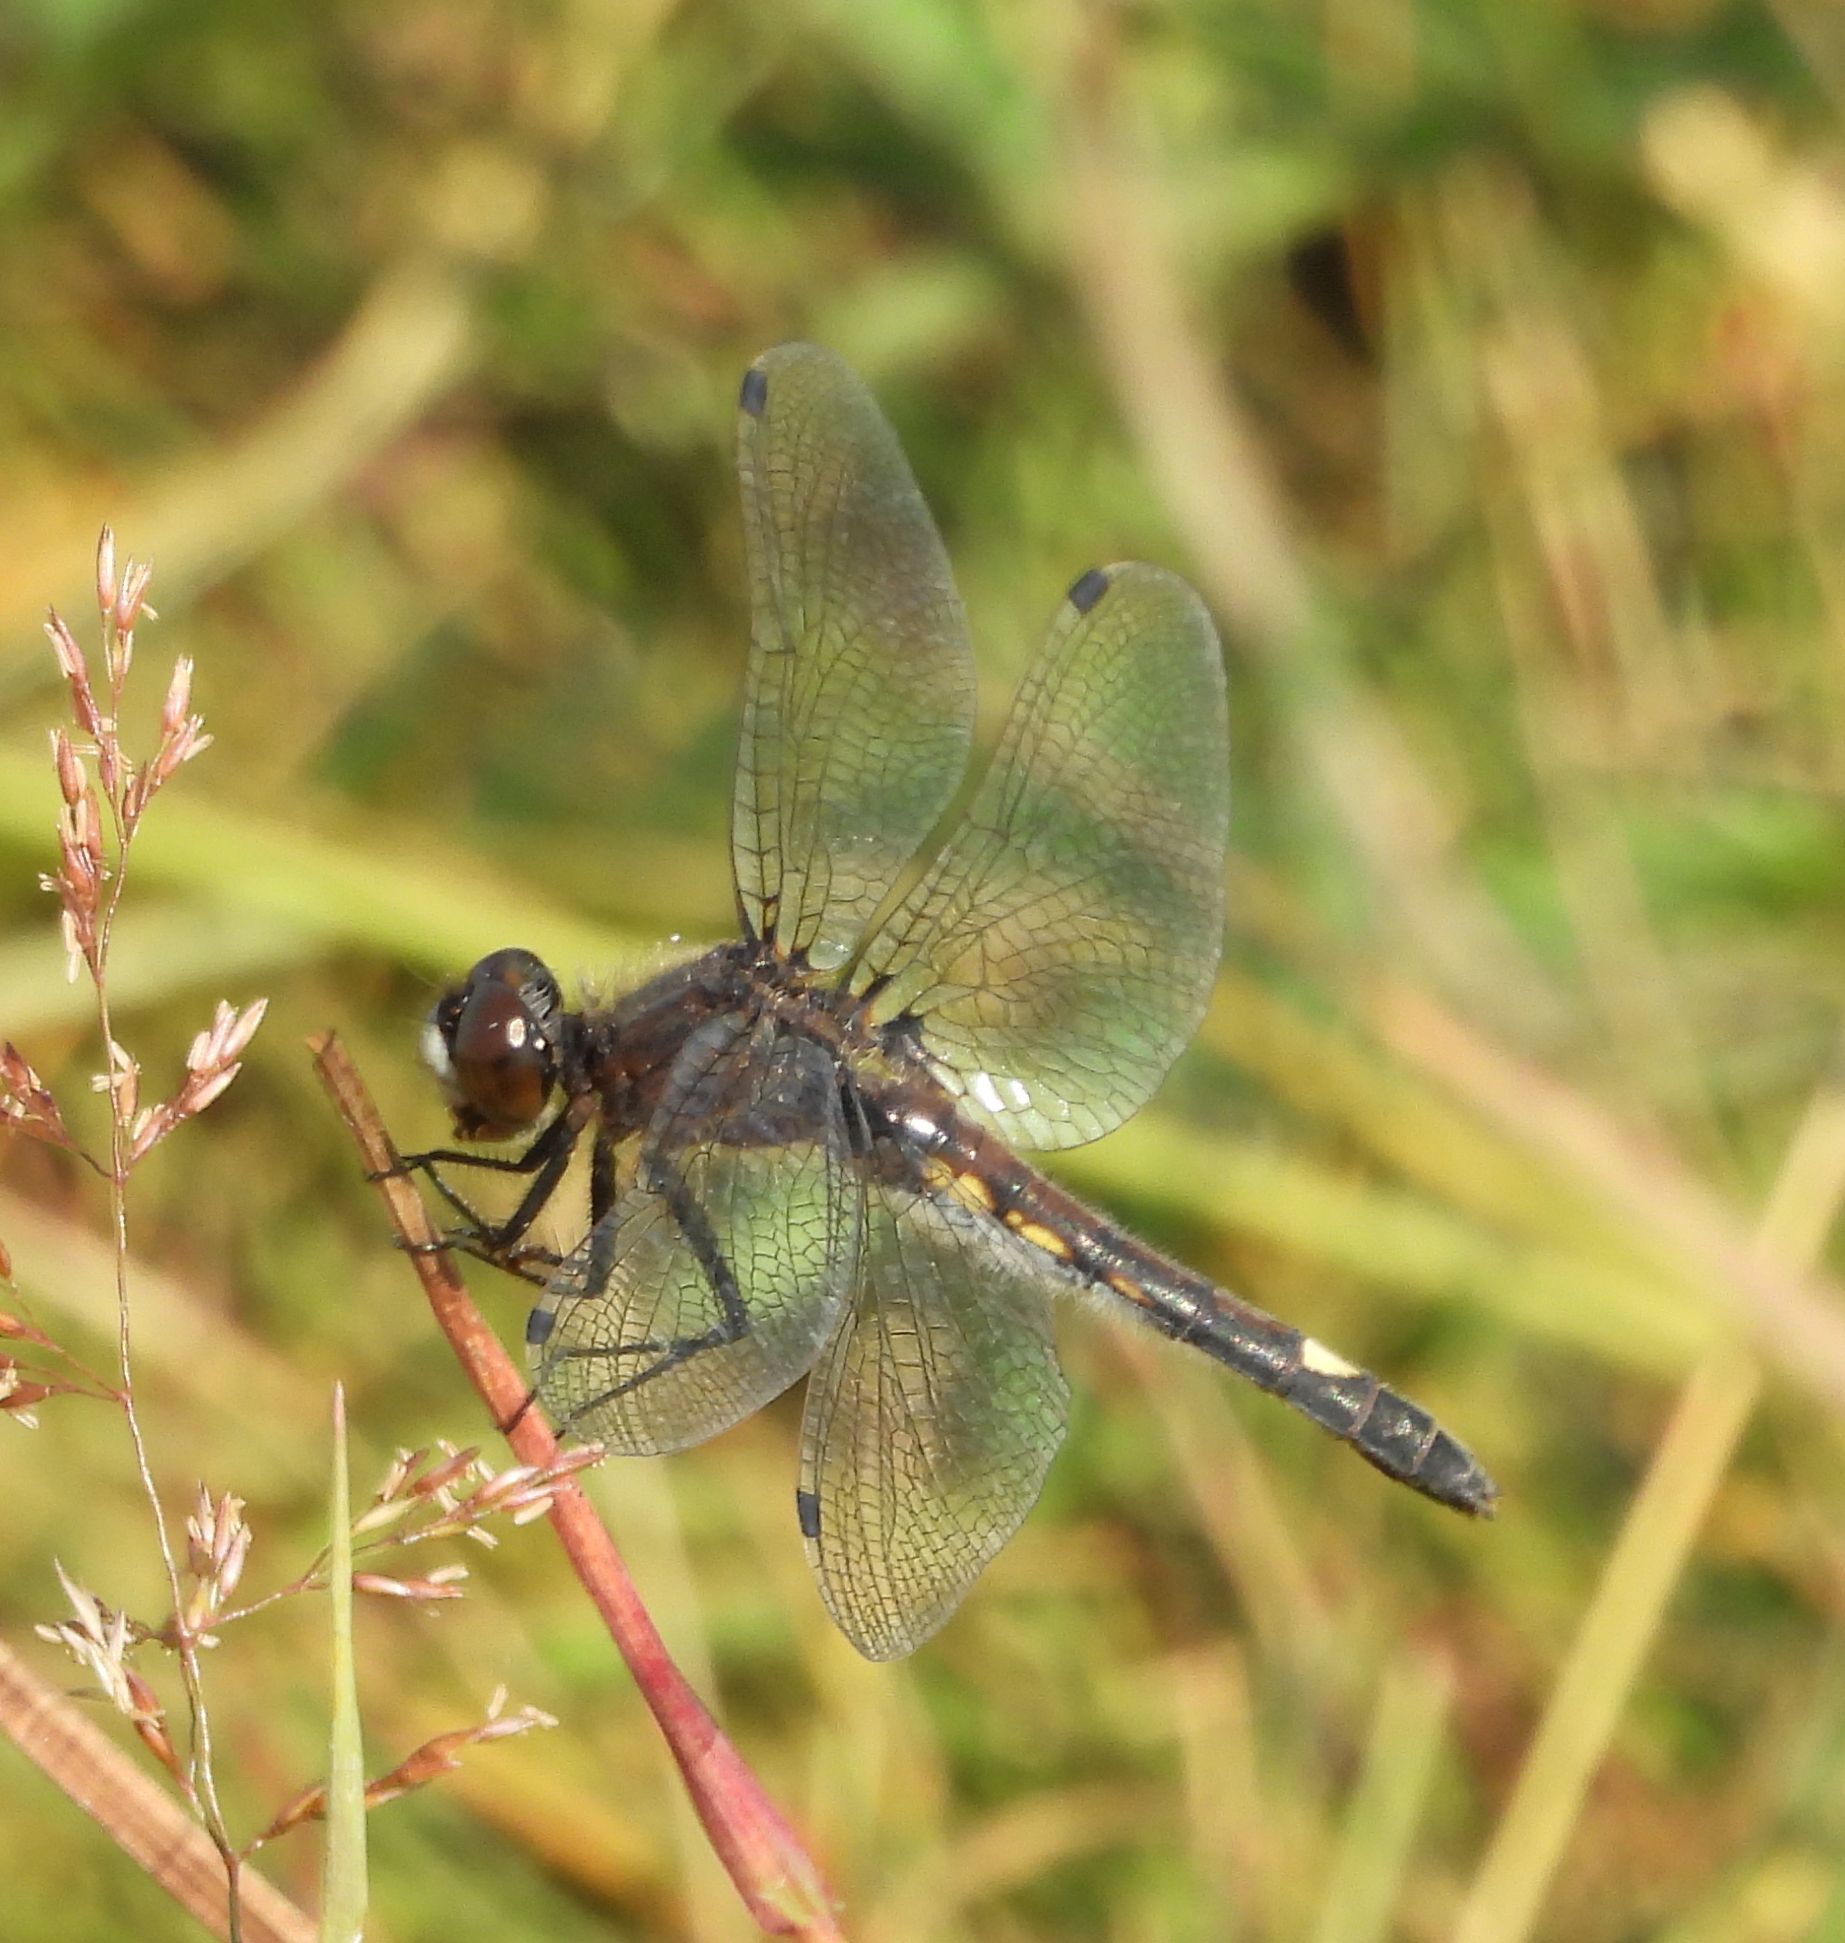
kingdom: Animalia
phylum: Arthropoda
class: Insecta
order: Odonata
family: Libellulidae
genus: Leucorrhinia
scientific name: Leucorrhinia intacta
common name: Dot-tailed whiteface
